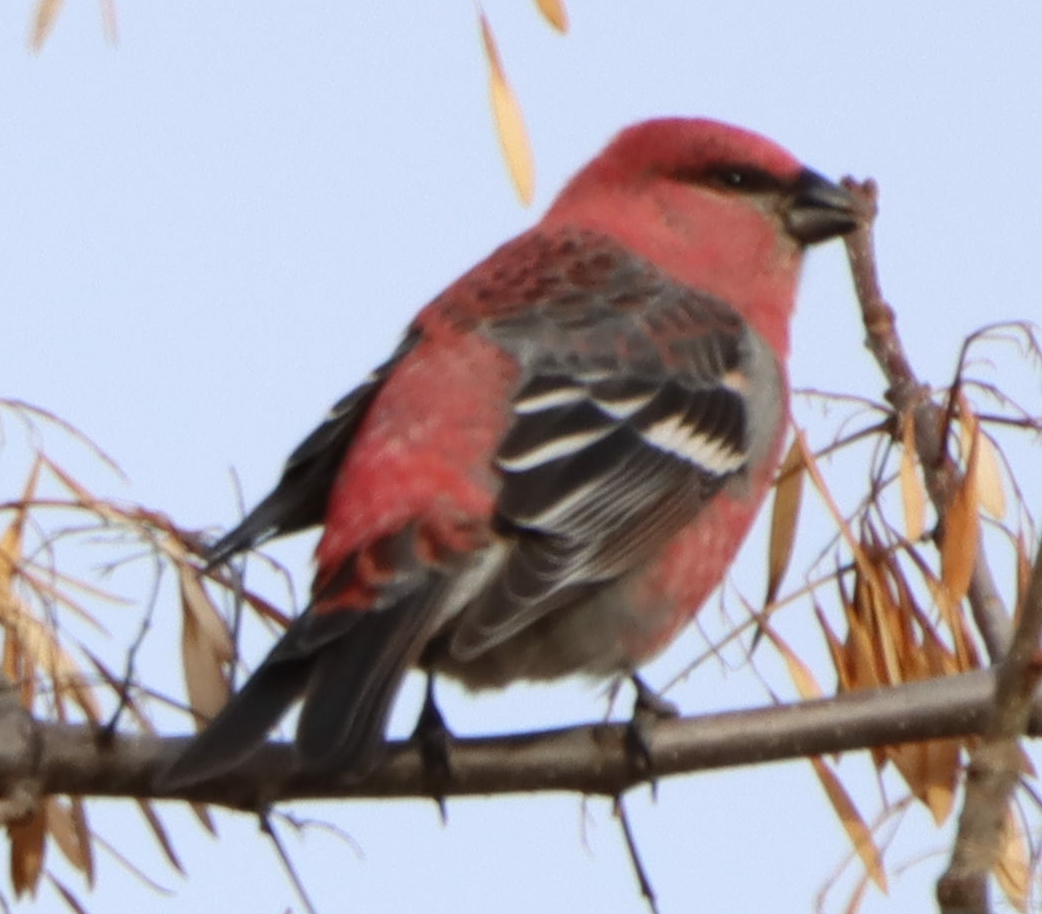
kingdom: Animalia
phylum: Chordata
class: Aves
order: Passeriformes
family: Fringillidae
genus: Pinicola
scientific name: Pinicola enucleator
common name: Pine grosbeak
